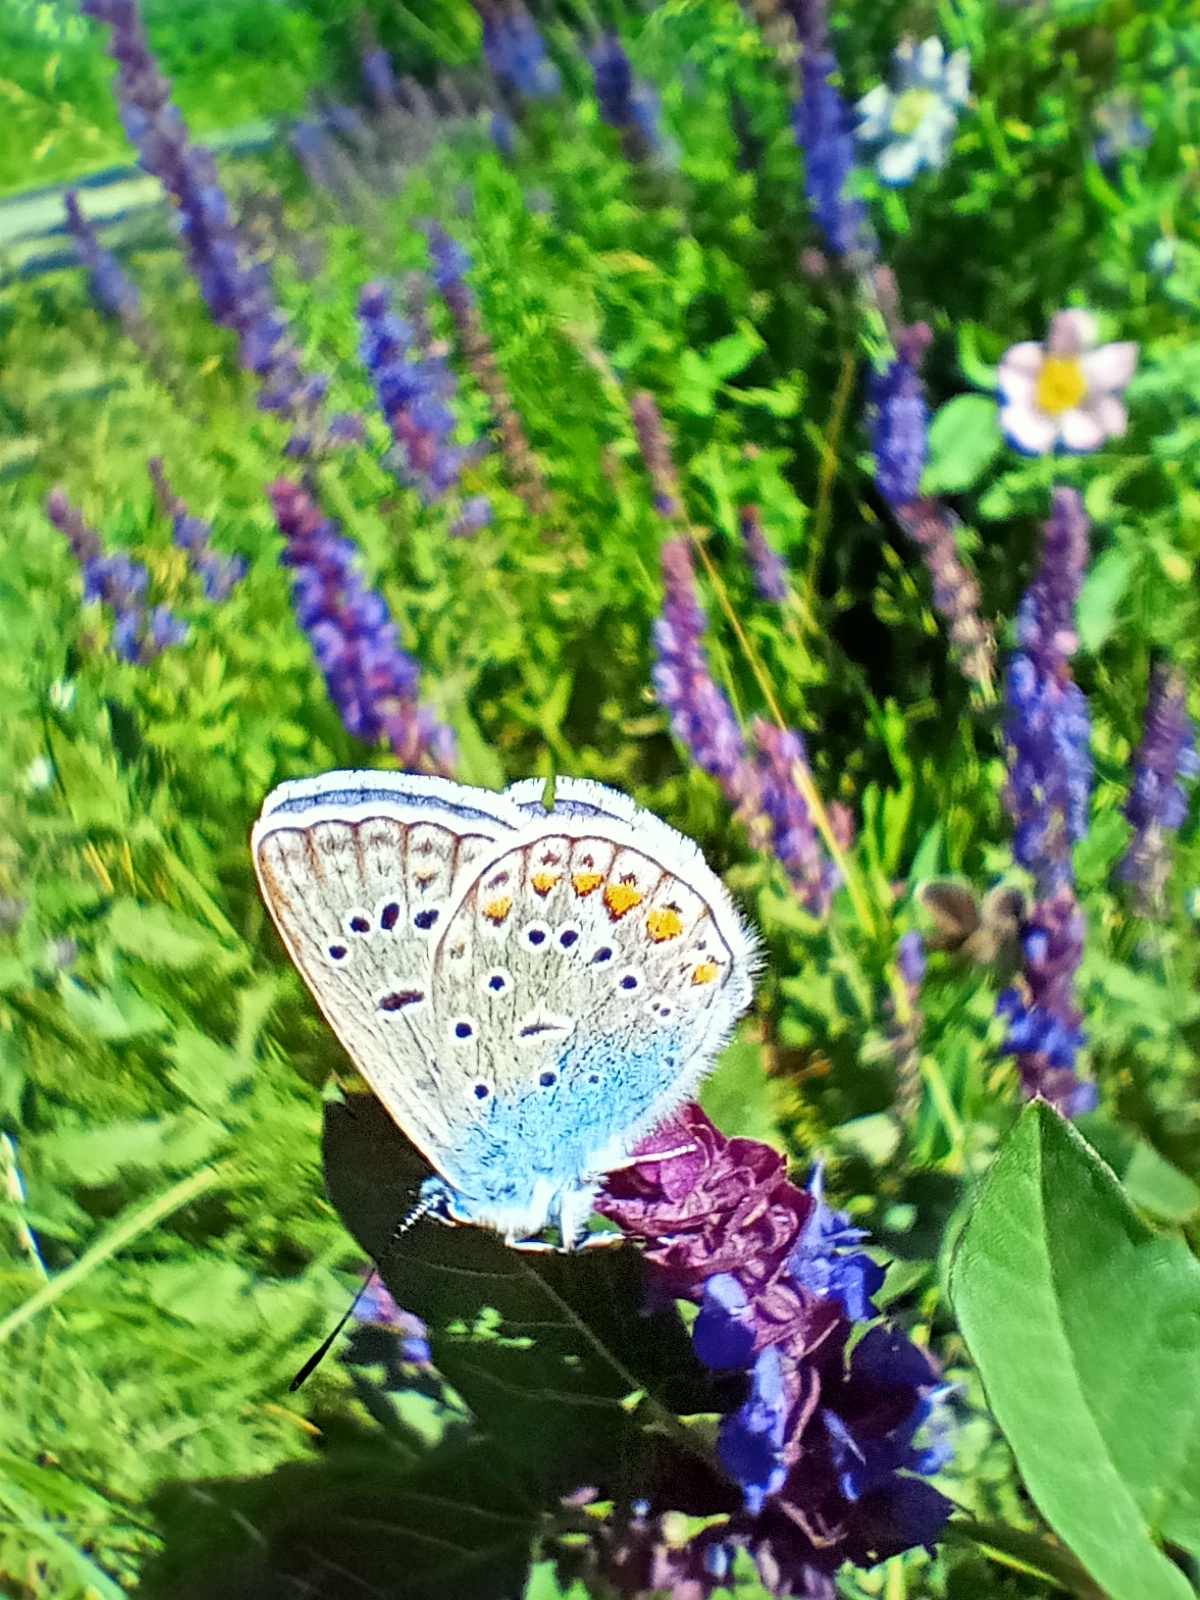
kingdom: Animalia
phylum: Arthropoda
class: Insecta
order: Lepidoptera
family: Lycaenidae
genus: Polyommatus
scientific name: Polyommatus icarus
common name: Common blue
